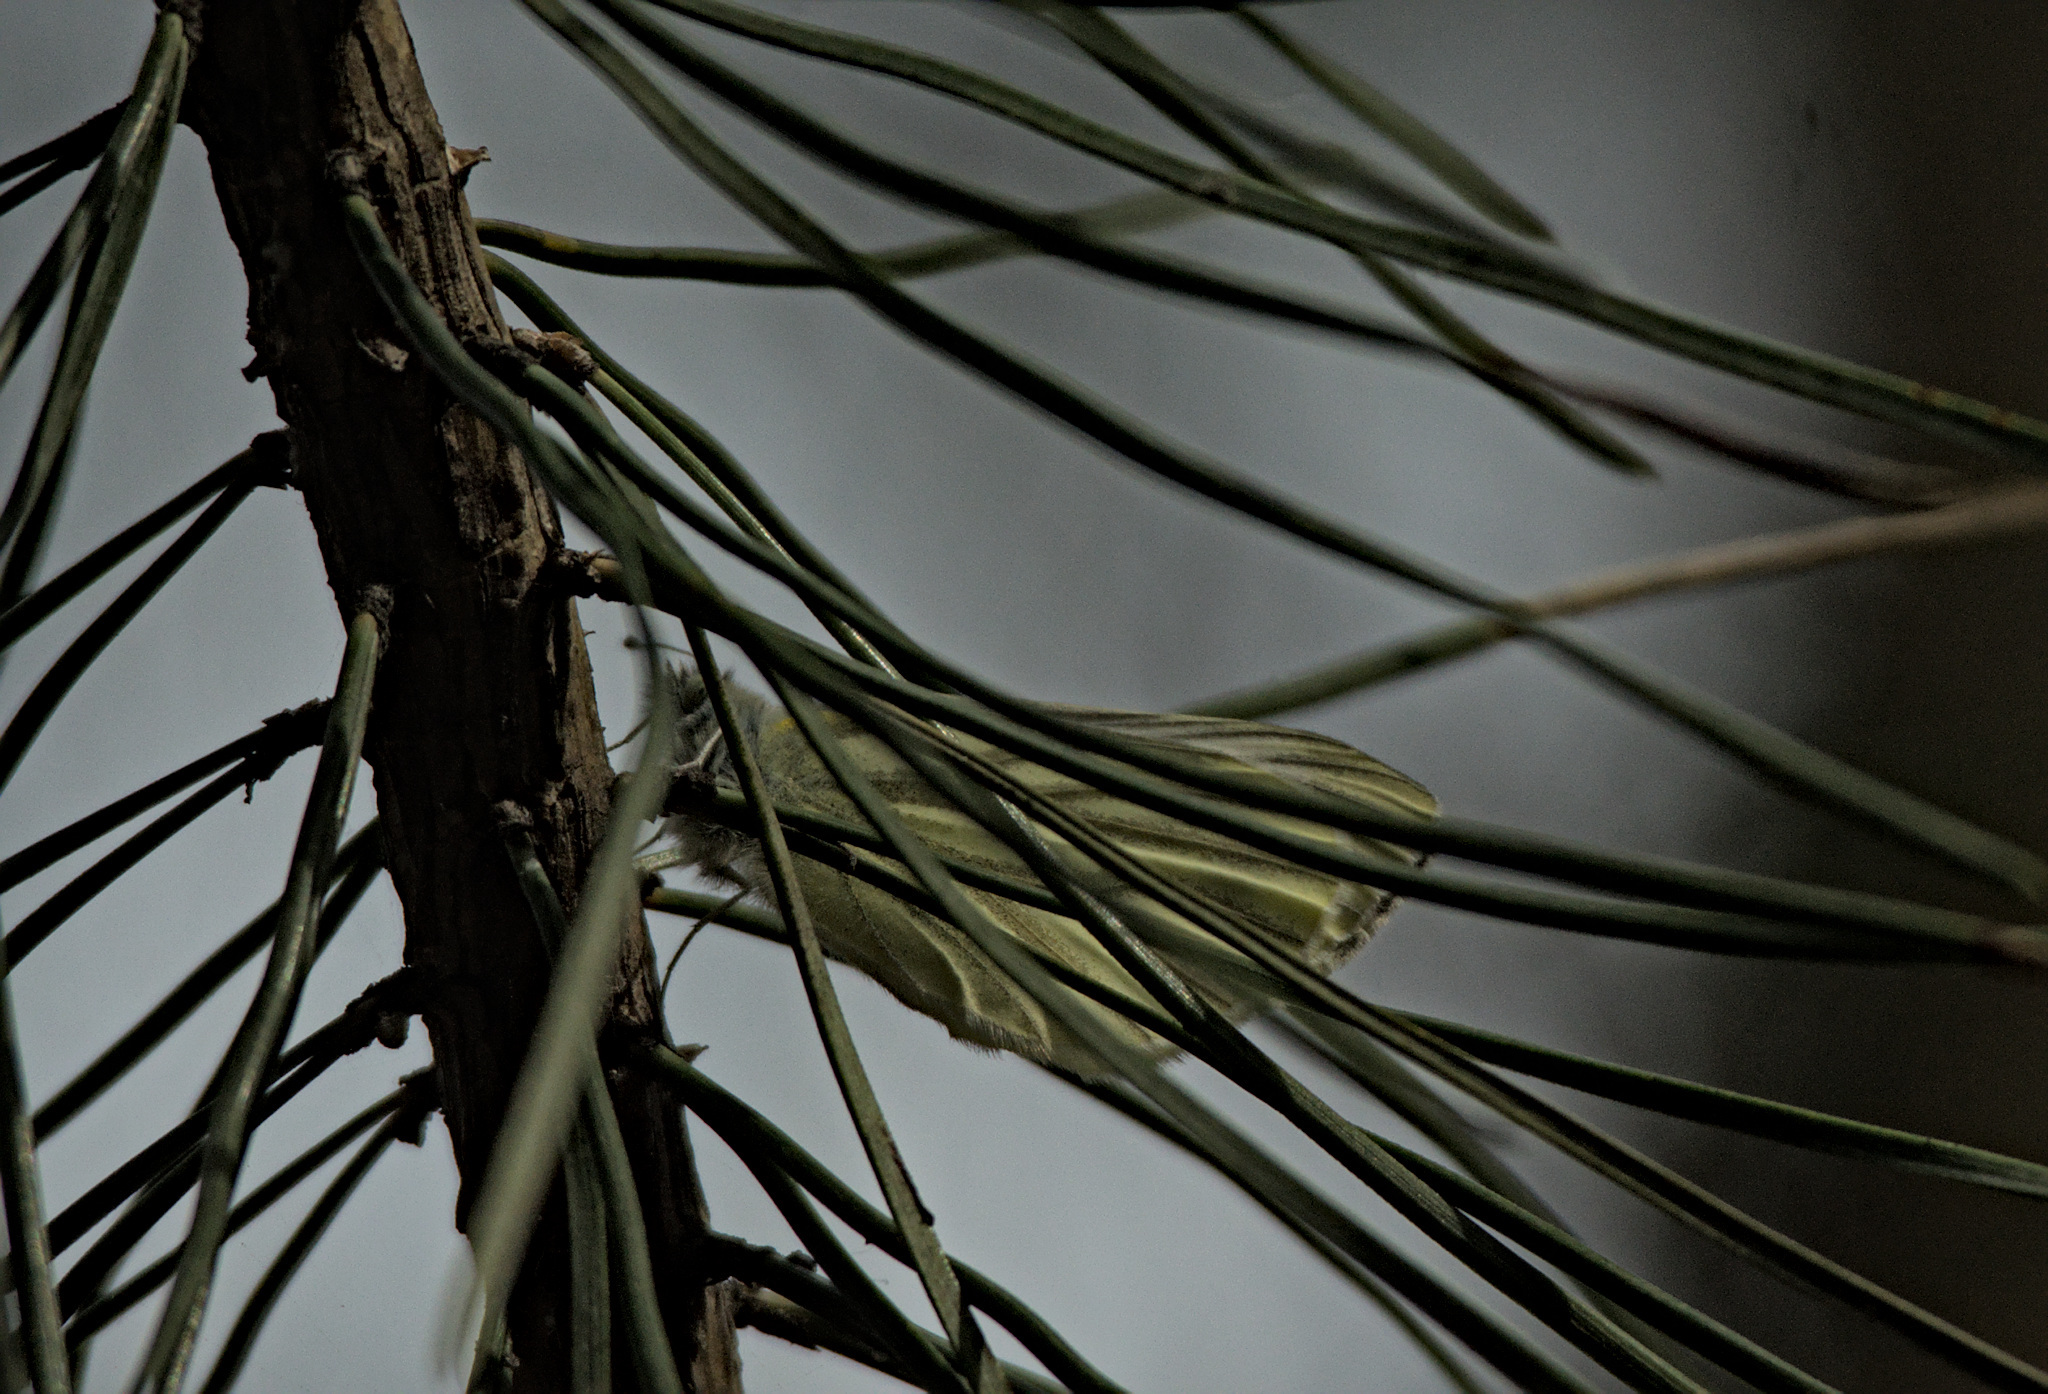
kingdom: Animalia
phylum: Arthropoda
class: Insecta
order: Lepidoptera
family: Pieridae
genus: Pieris
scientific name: Pieris napi
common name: Green-veined white
